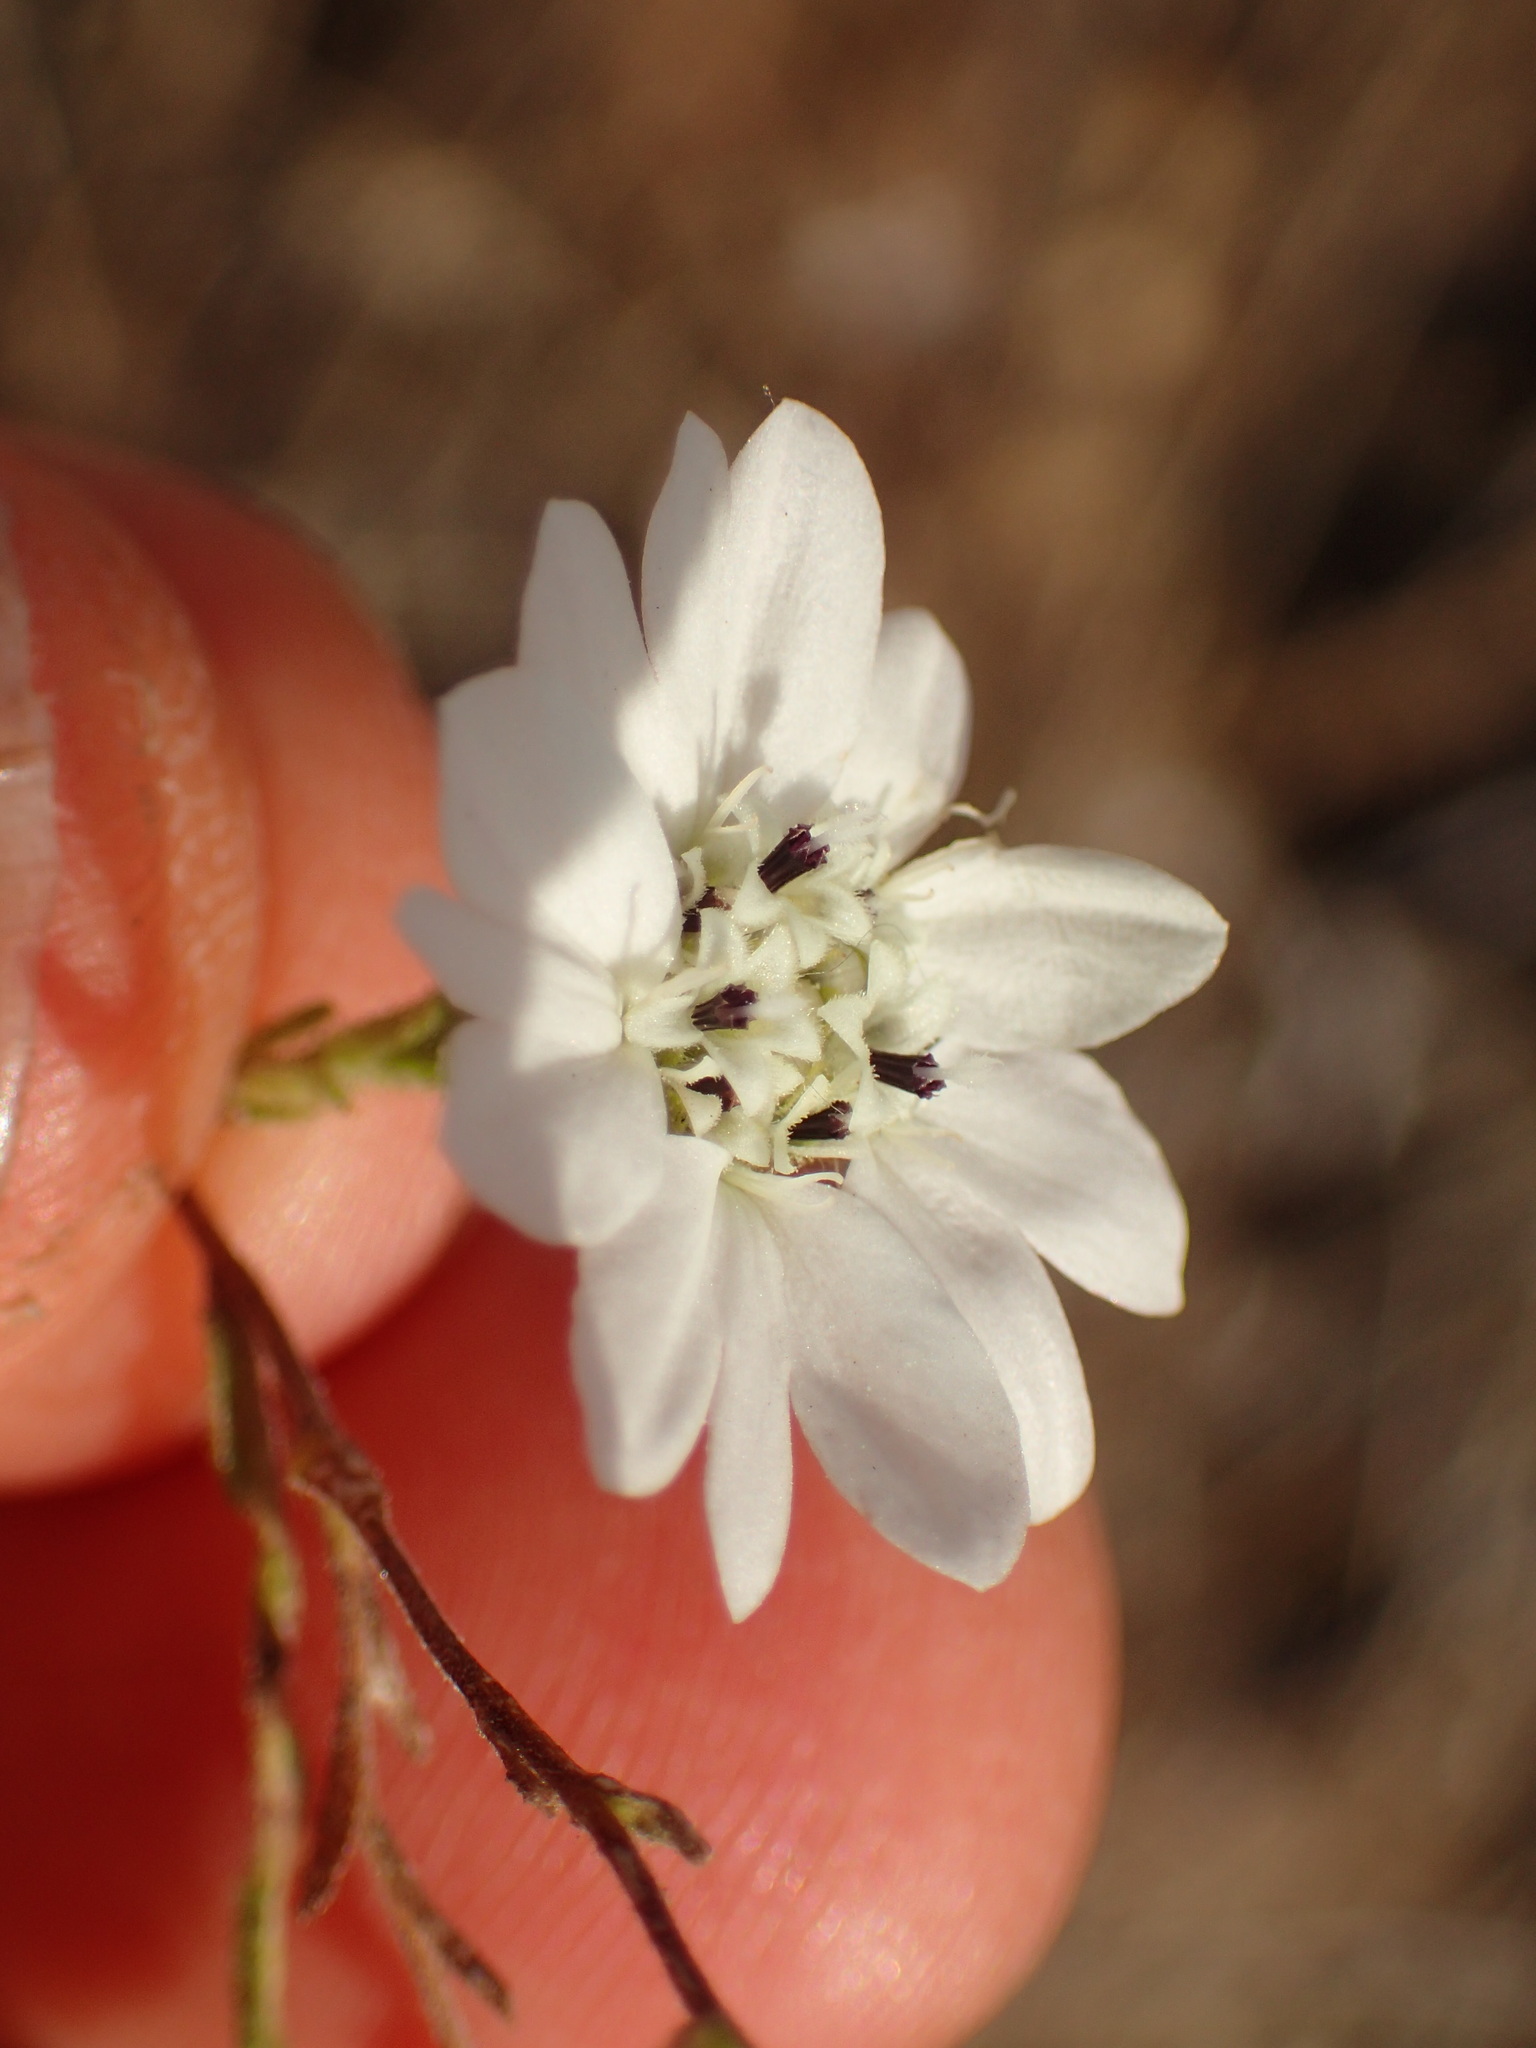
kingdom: Plantae
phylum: Tracheophyta
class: Magnoliopsida
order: Asterales
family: Asteraceae
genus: Hemizonia
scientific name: Hemizonia congesta
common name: Hayfield tarweed
